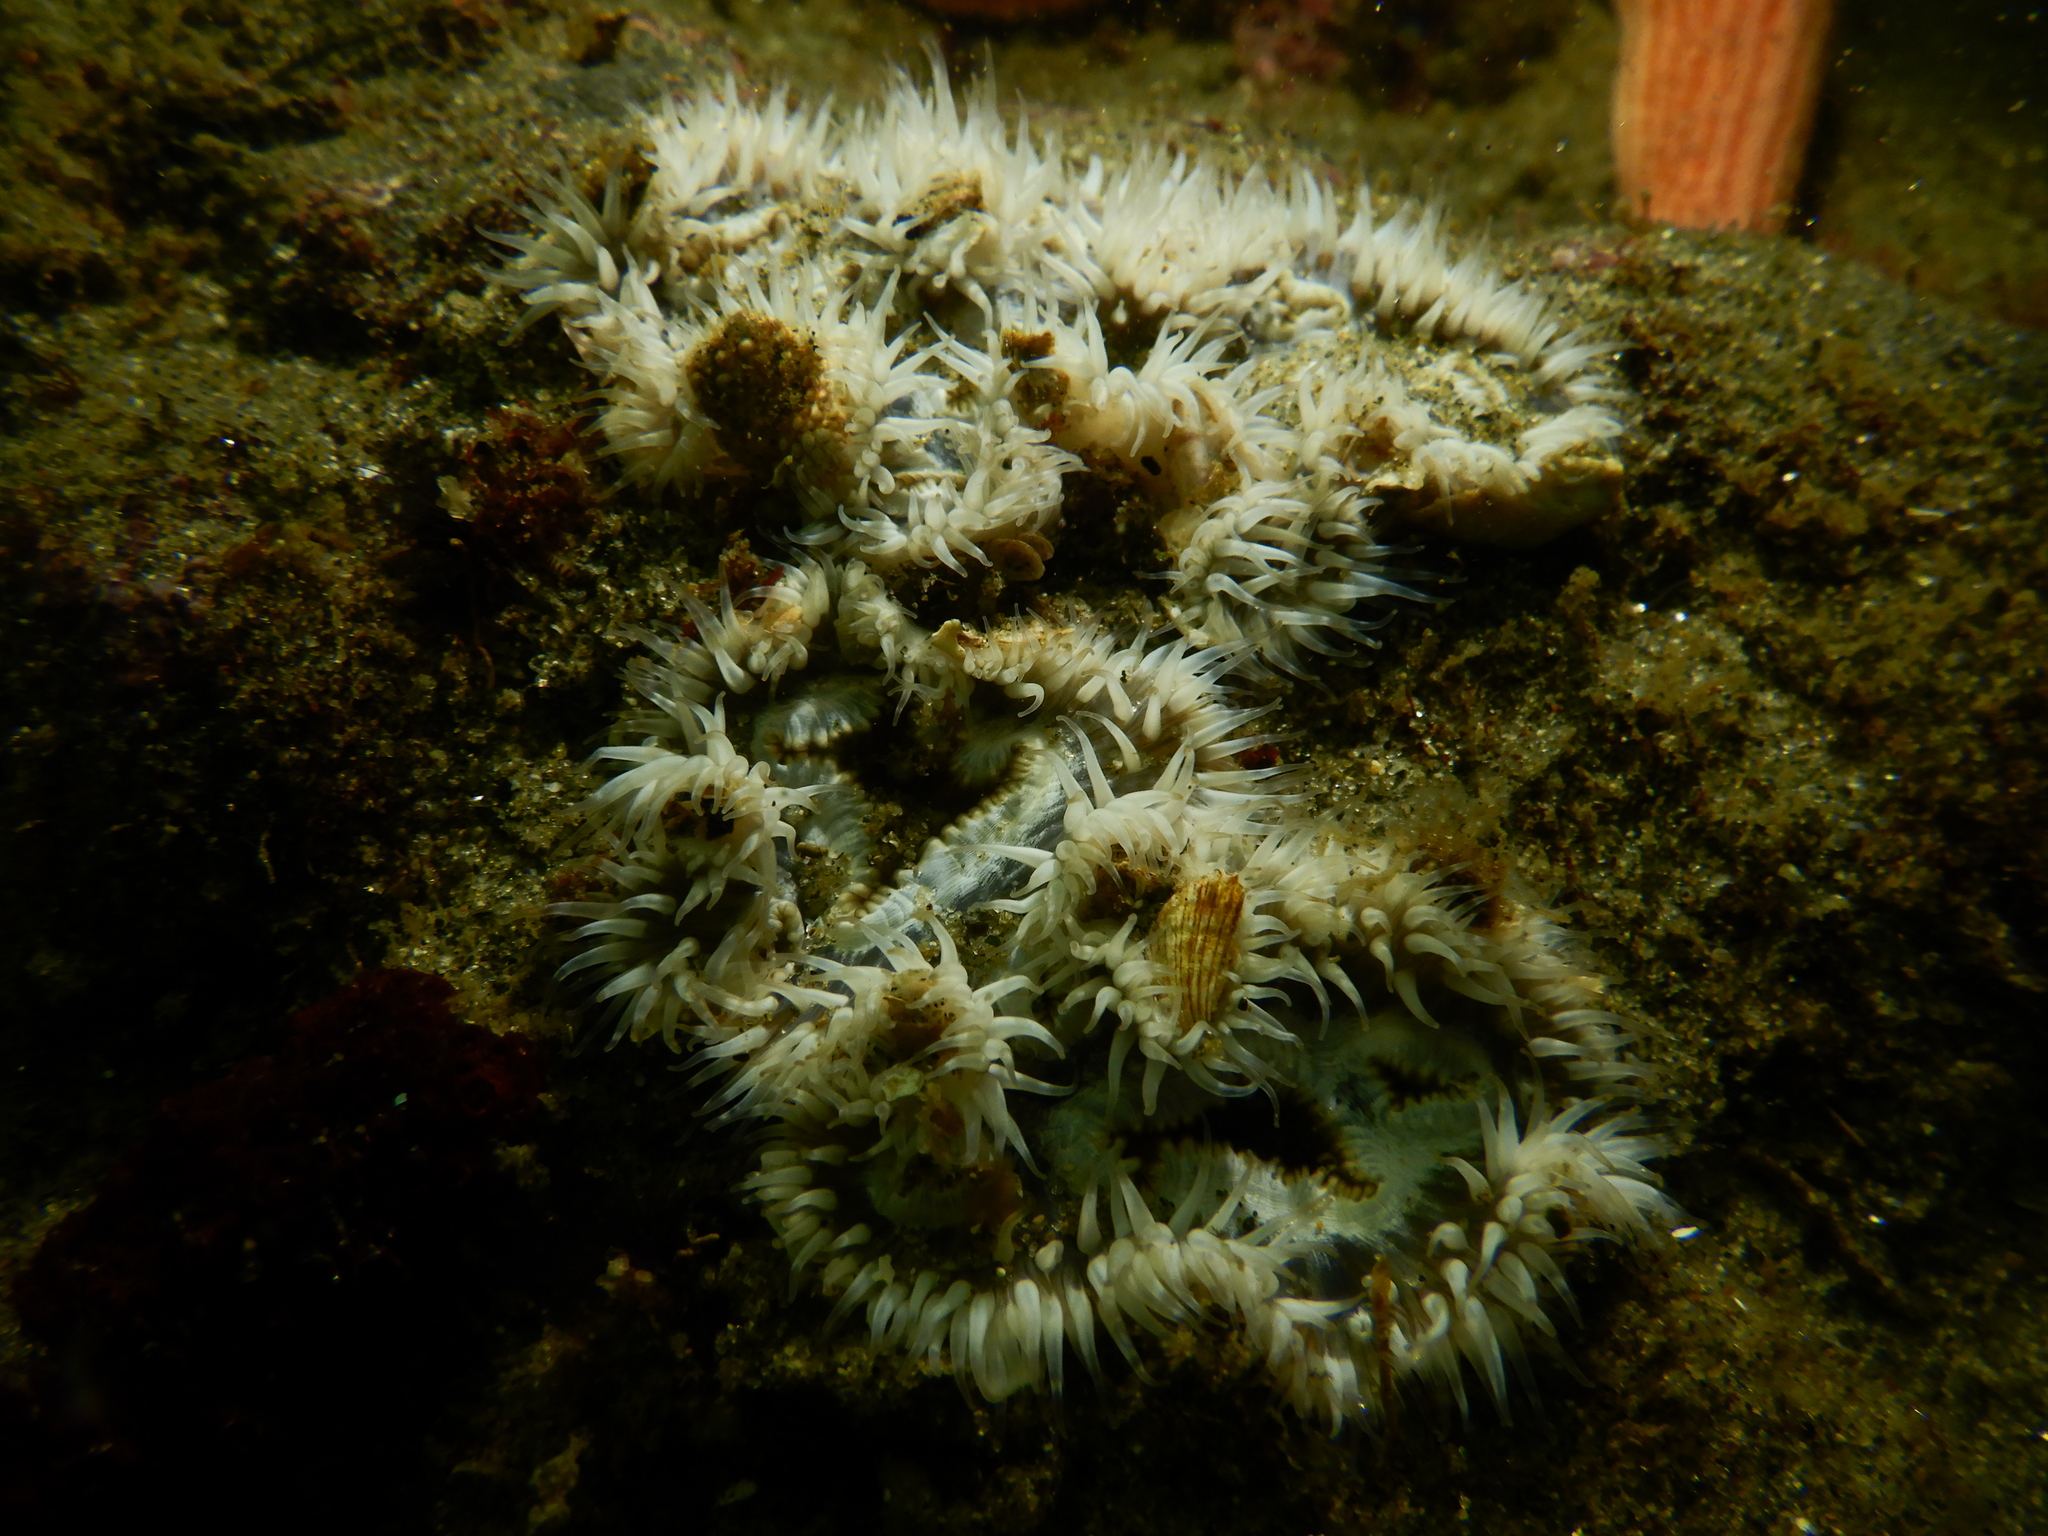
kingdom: Animalia
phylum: Cnidaria
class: Anthozoa
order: Actiniaria
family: Sagartiidae
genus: Cereus
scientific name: Cereus herpetodes
